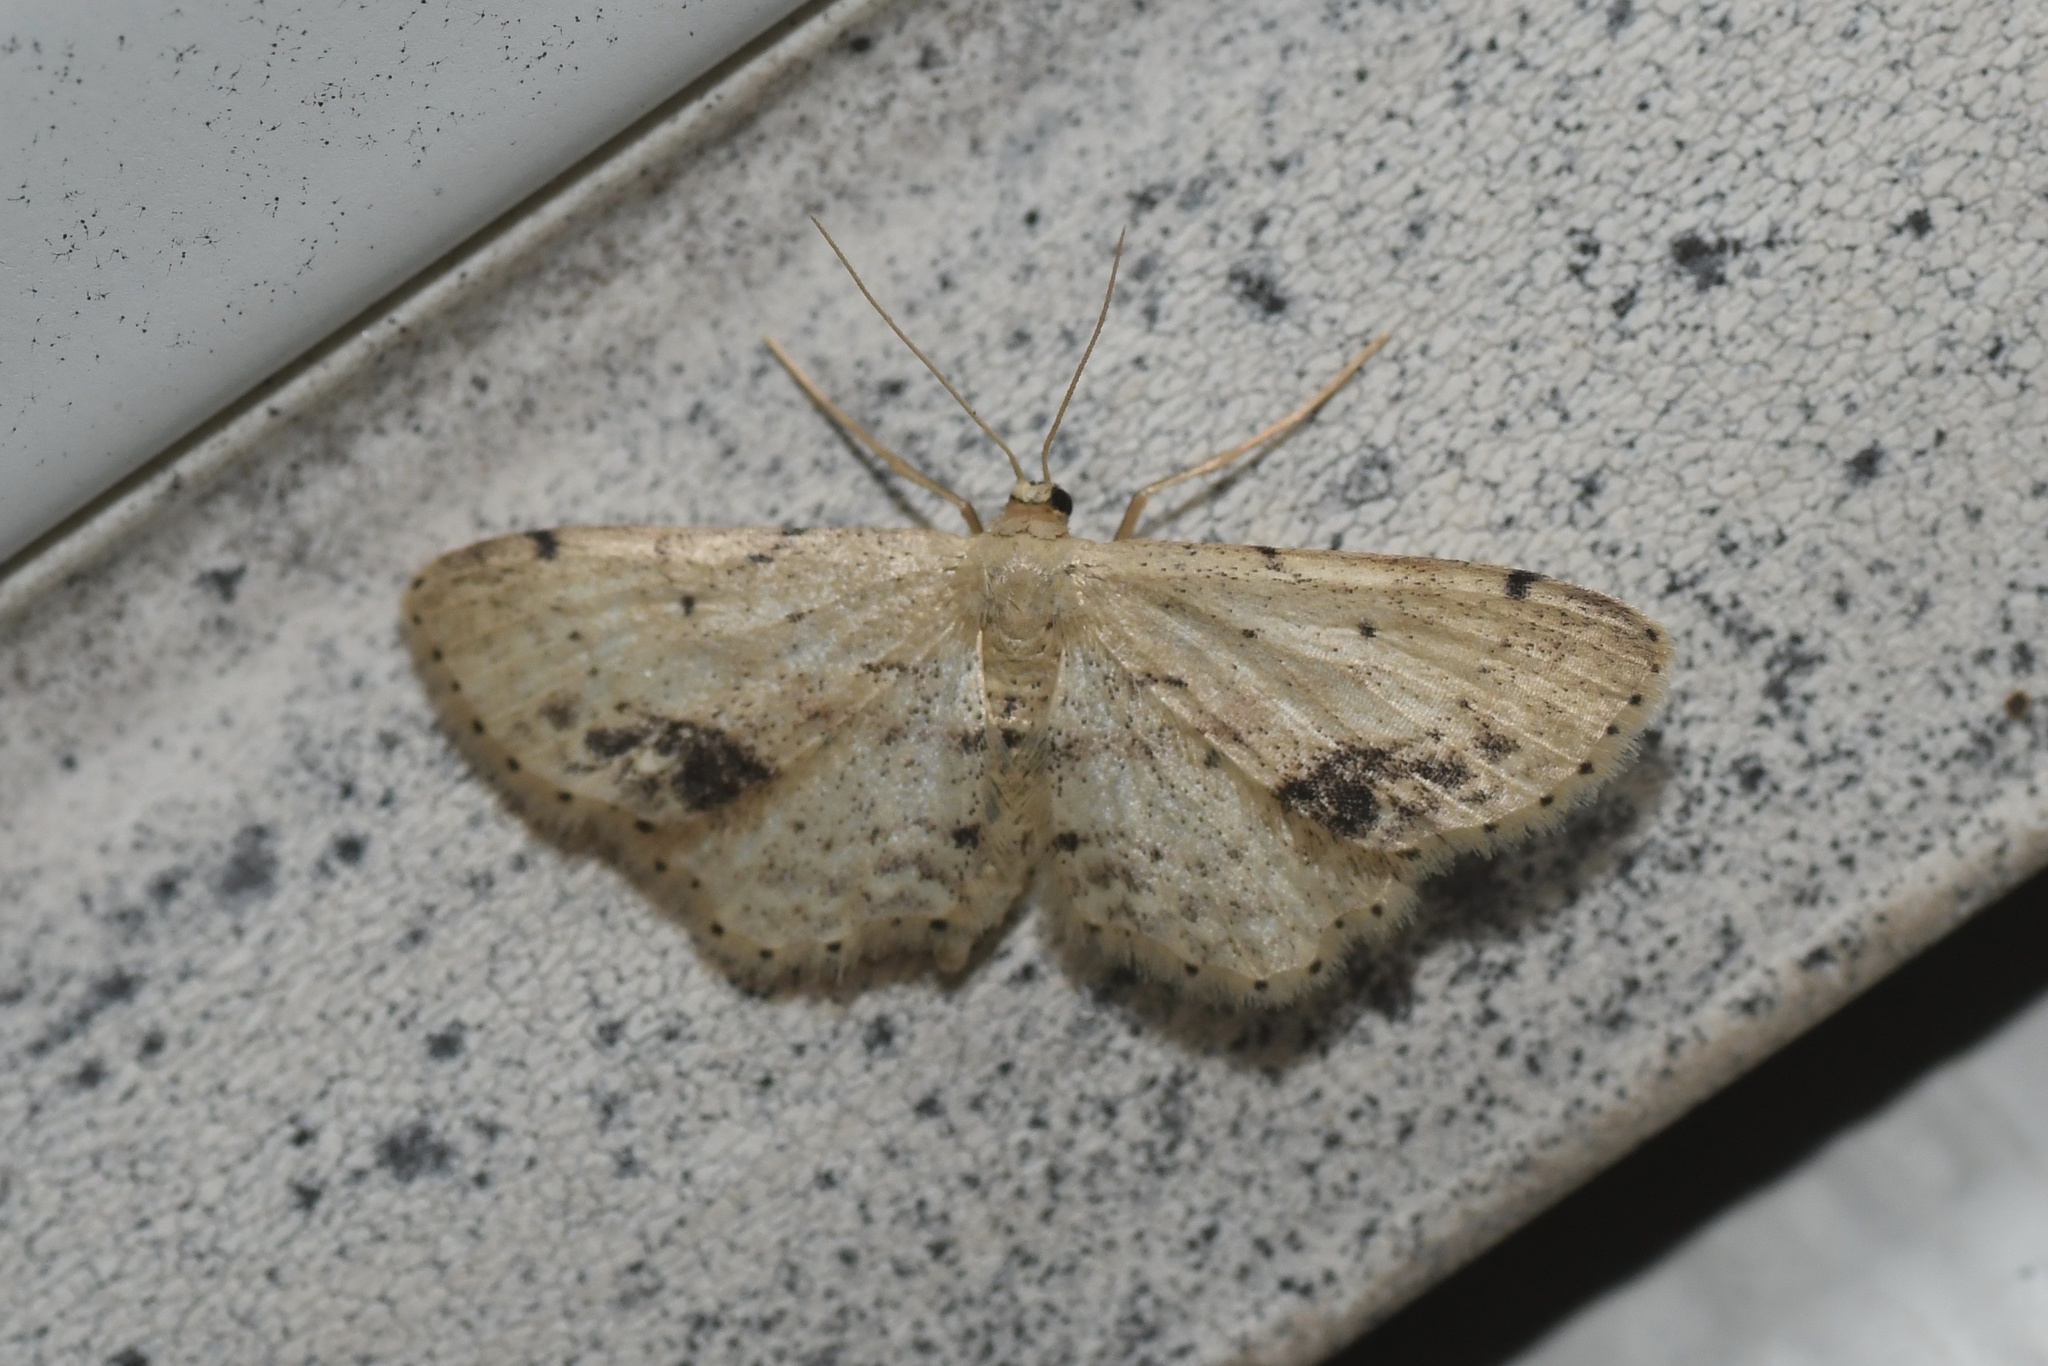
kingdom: Animalia
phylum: Arthropoda
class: Insecta
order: Lepidoptera
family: Geometridae
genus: Idaea
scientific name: Idaea dimidiata
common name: Single-dotted wave
